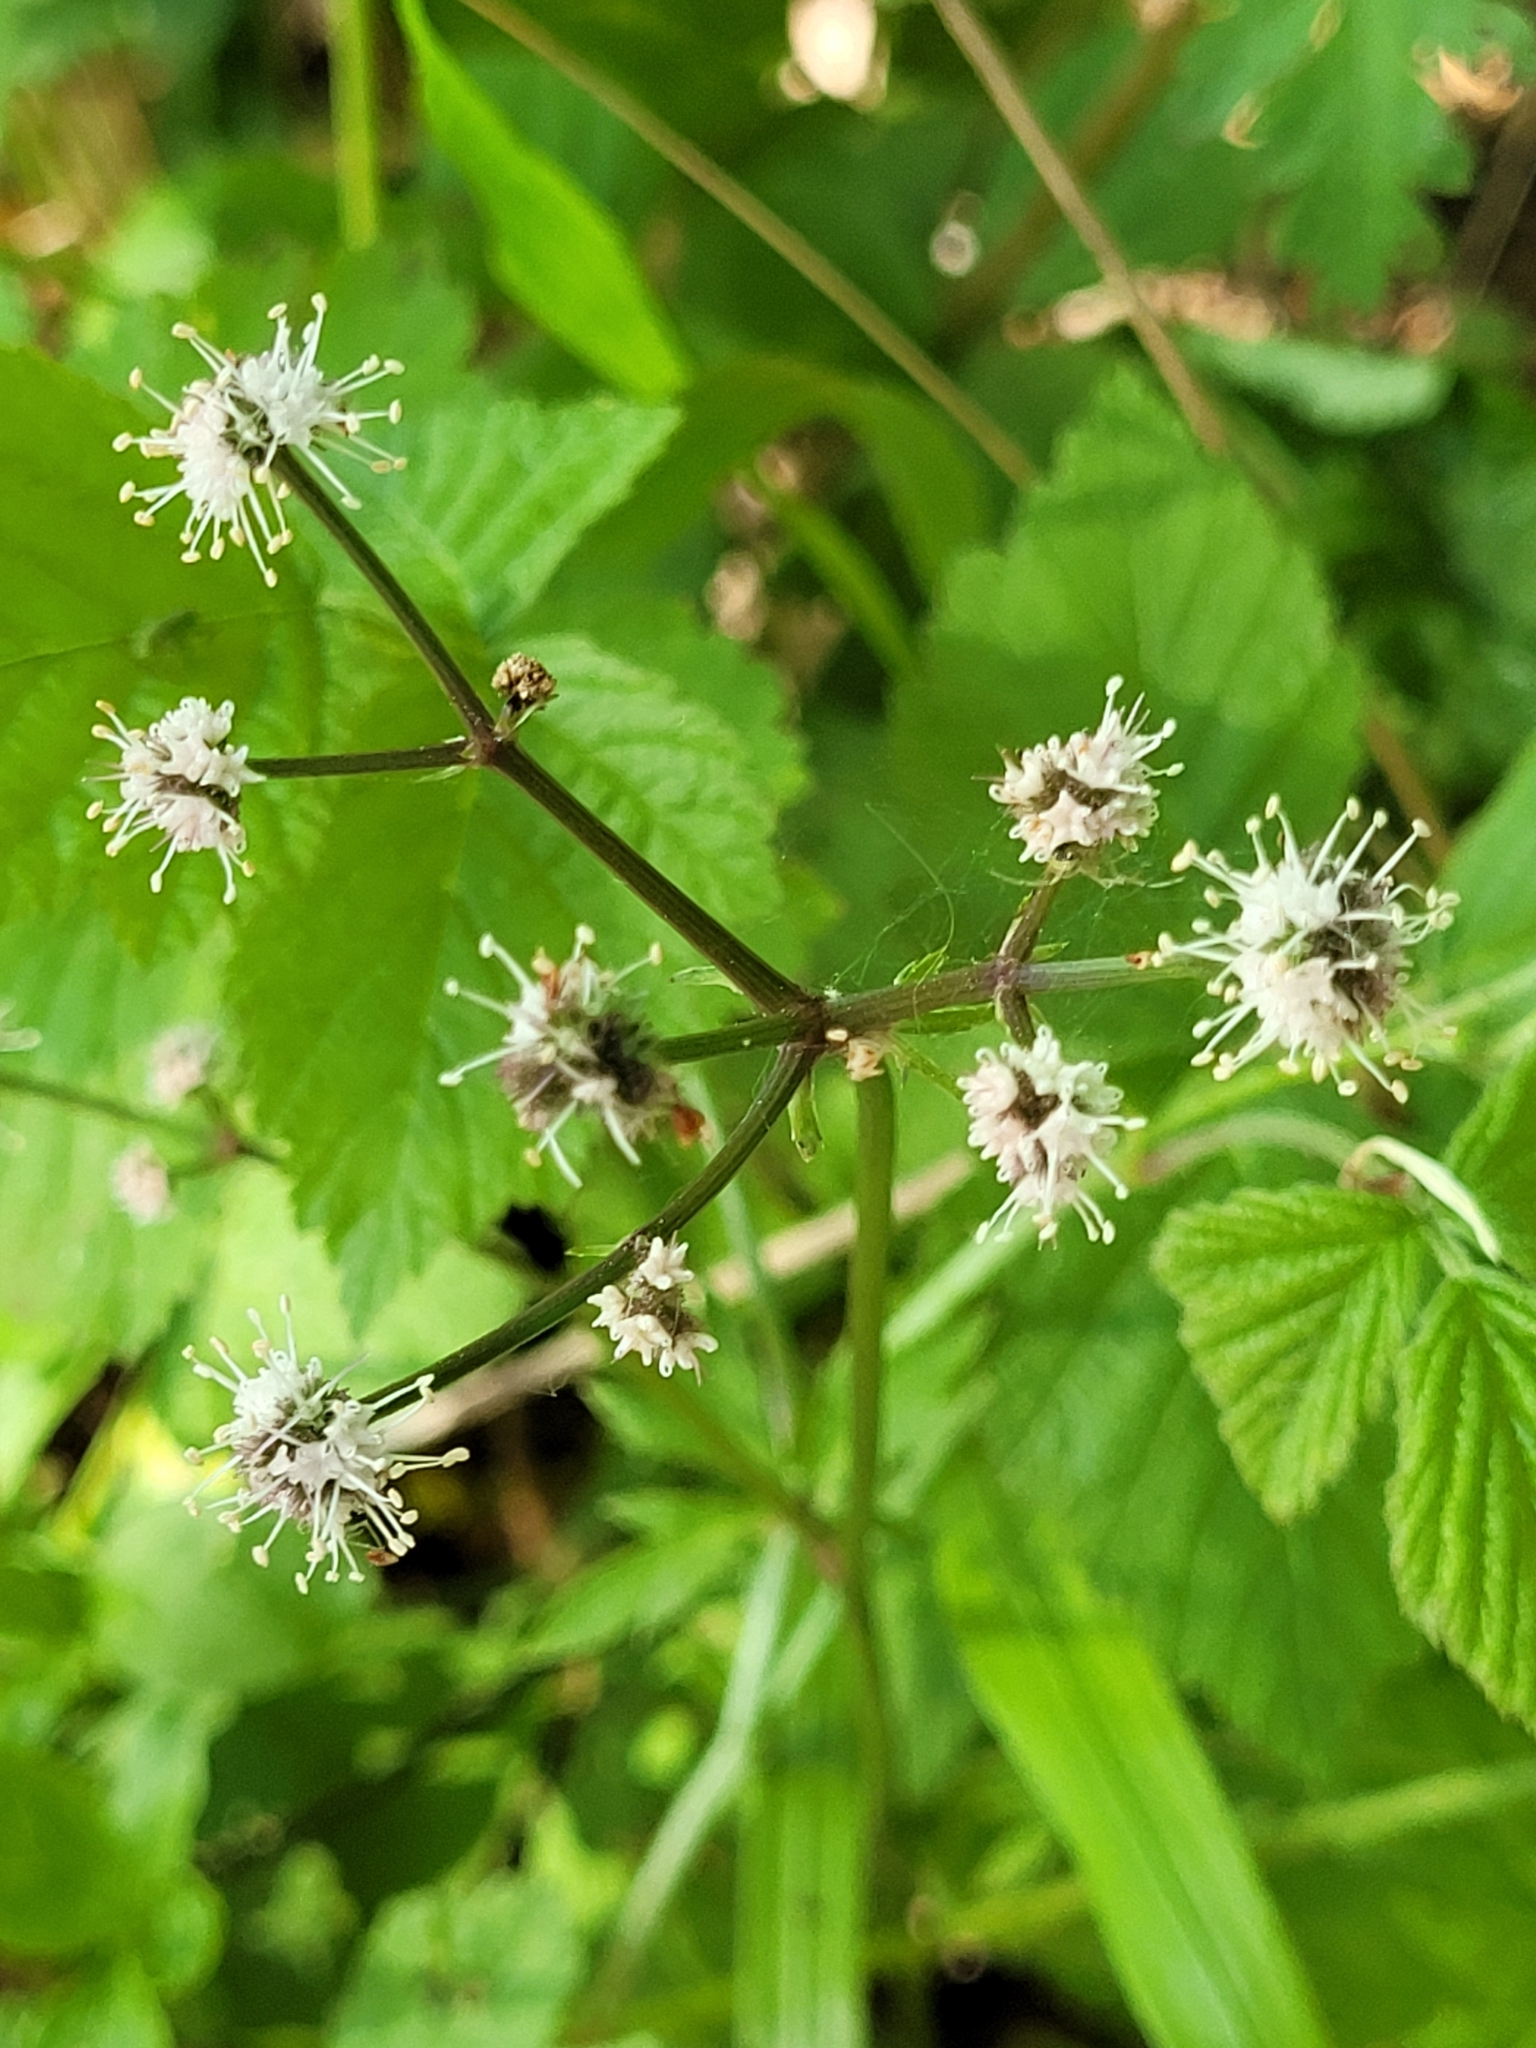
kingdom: Plantae
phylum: Tracheophyta
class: Magnoliopsida
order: Apiales
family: Apiaceae
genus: Sanicula
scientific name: Sanicula europaea
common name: Sanicle
